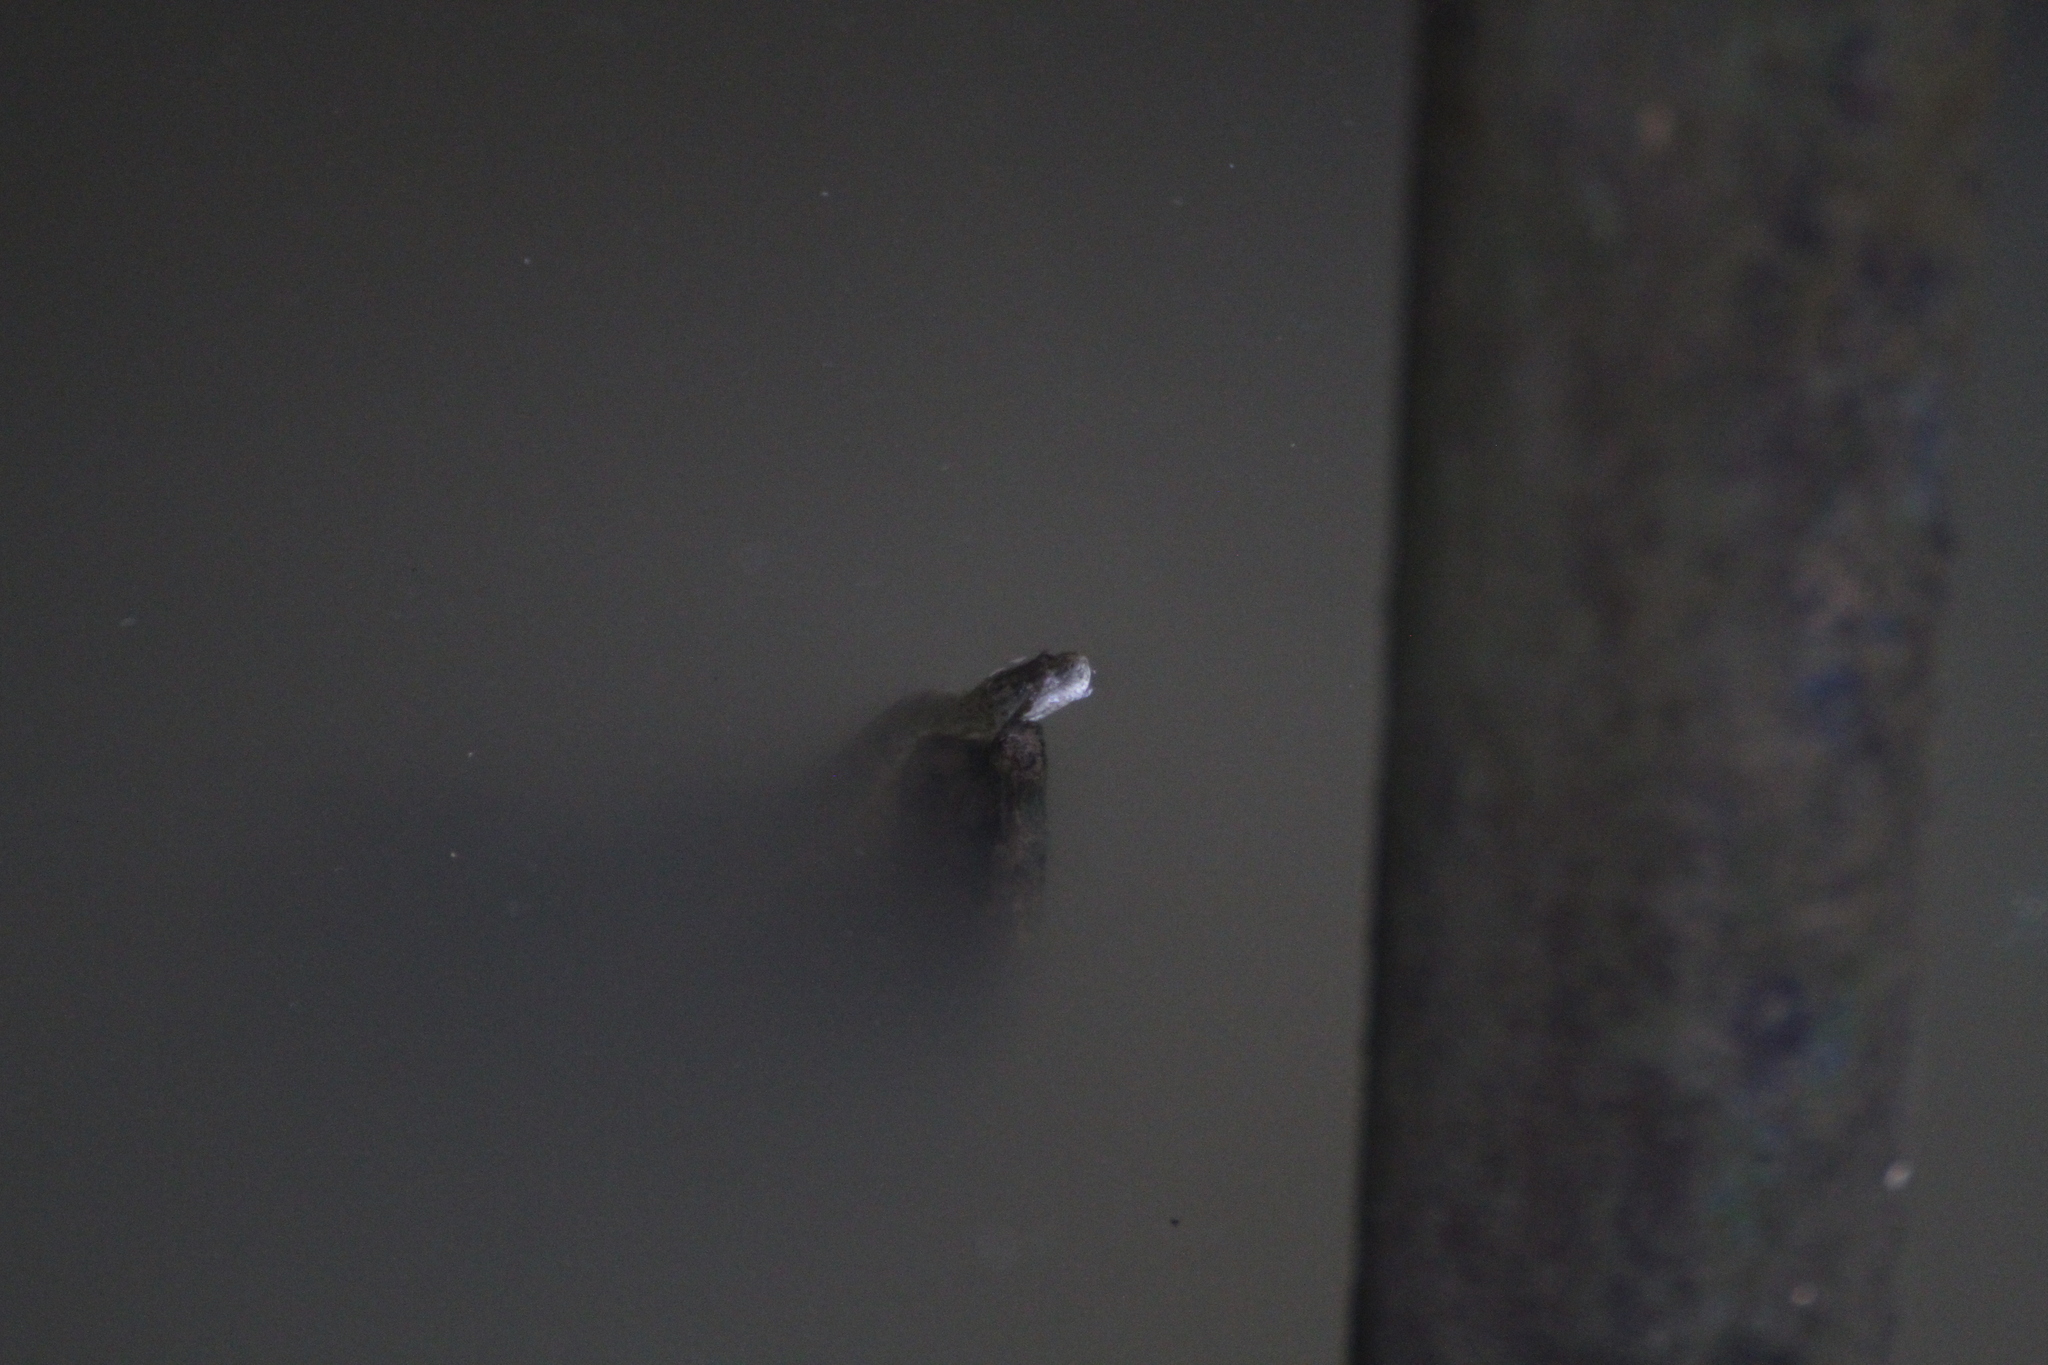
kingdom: Animalia
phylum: Chordata
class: Squamata
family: Homalopsidae
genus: Cerberus
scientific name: Cerberus schneiderii
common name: Southeast asian bockadam
